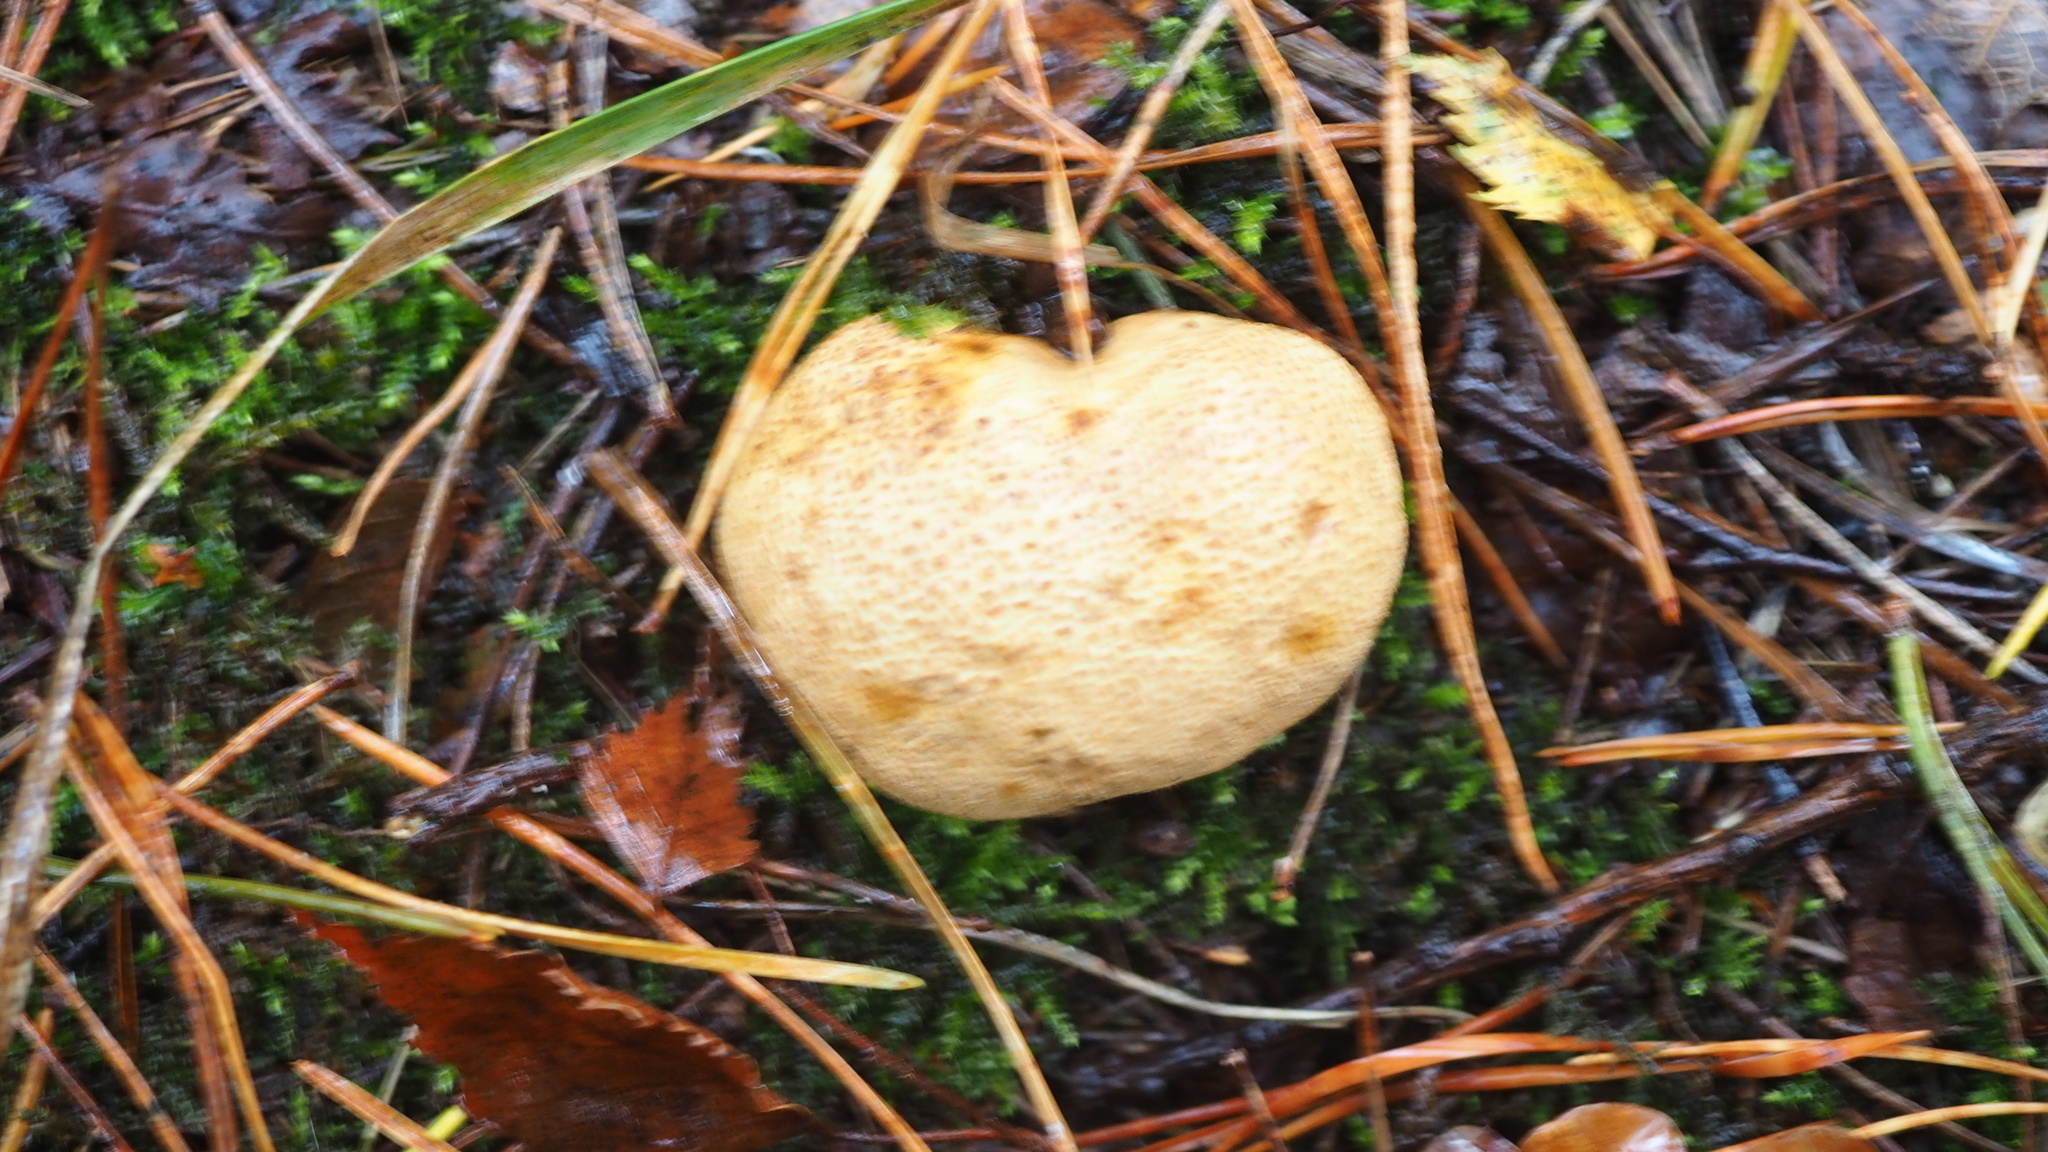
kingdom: Fungi
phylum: Basidiomycota
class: Agaricomycetes
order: Boletales
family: Sclerodermataceae
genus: Scleroderma
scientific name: Scleroderma citrinum
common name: Common earthball
